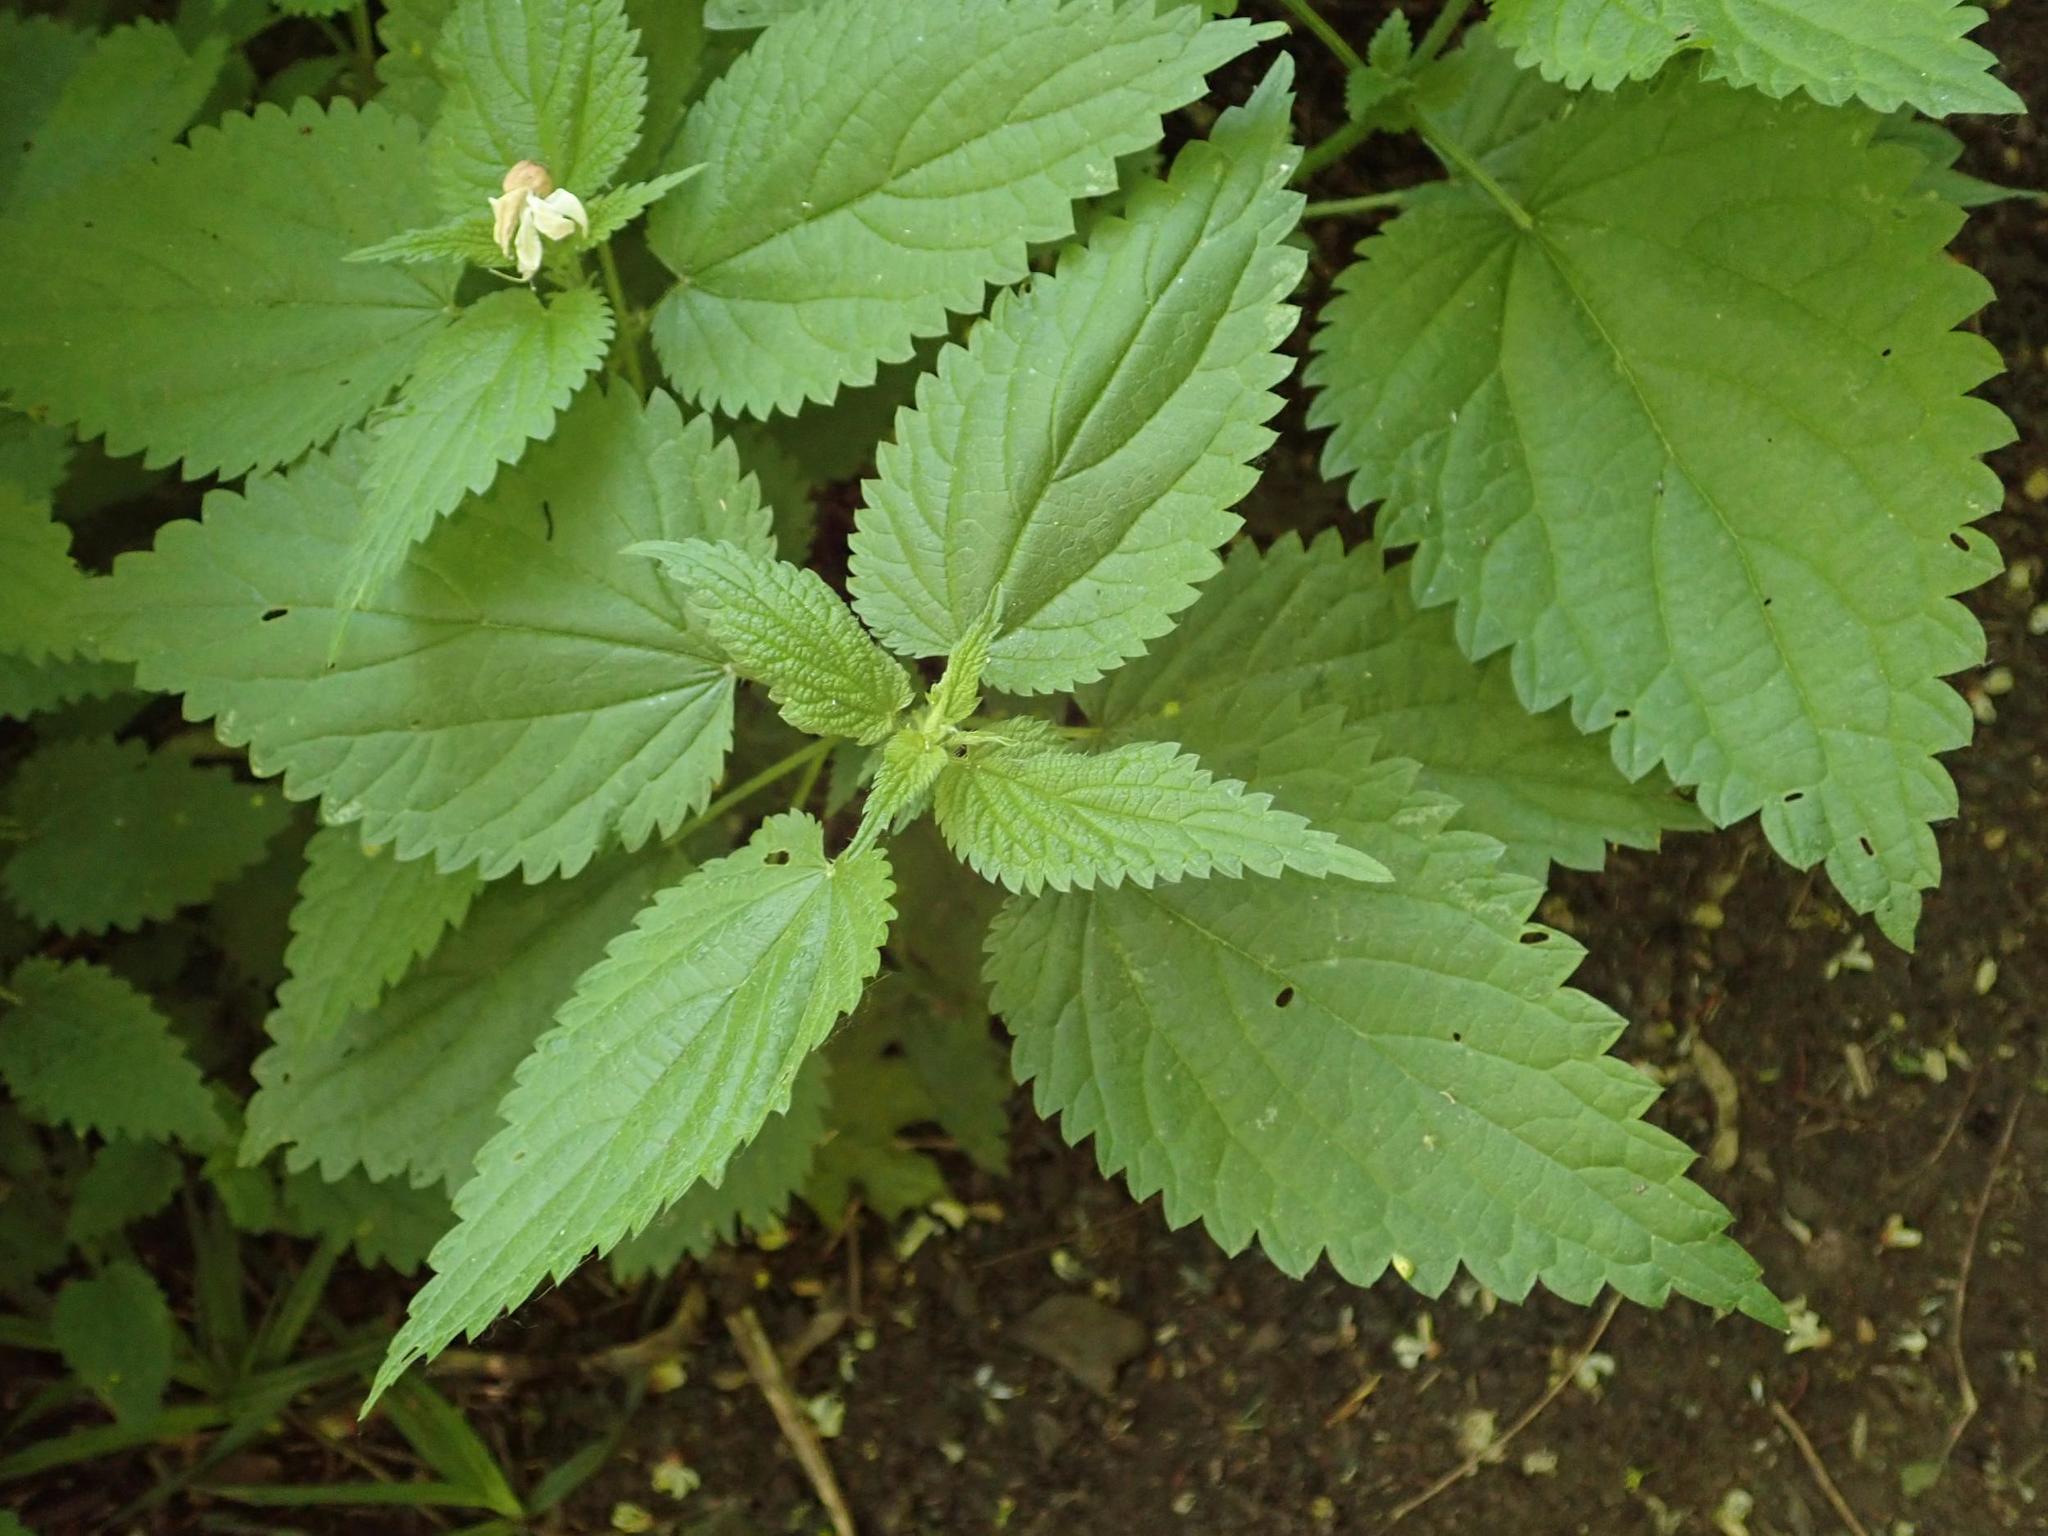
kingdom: Plantae
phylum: Tracheophyta
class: Magnoliopsida
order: Rosales
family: Urticaceae
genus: Urtica
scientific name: Urtica dioica
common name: Common nettle
